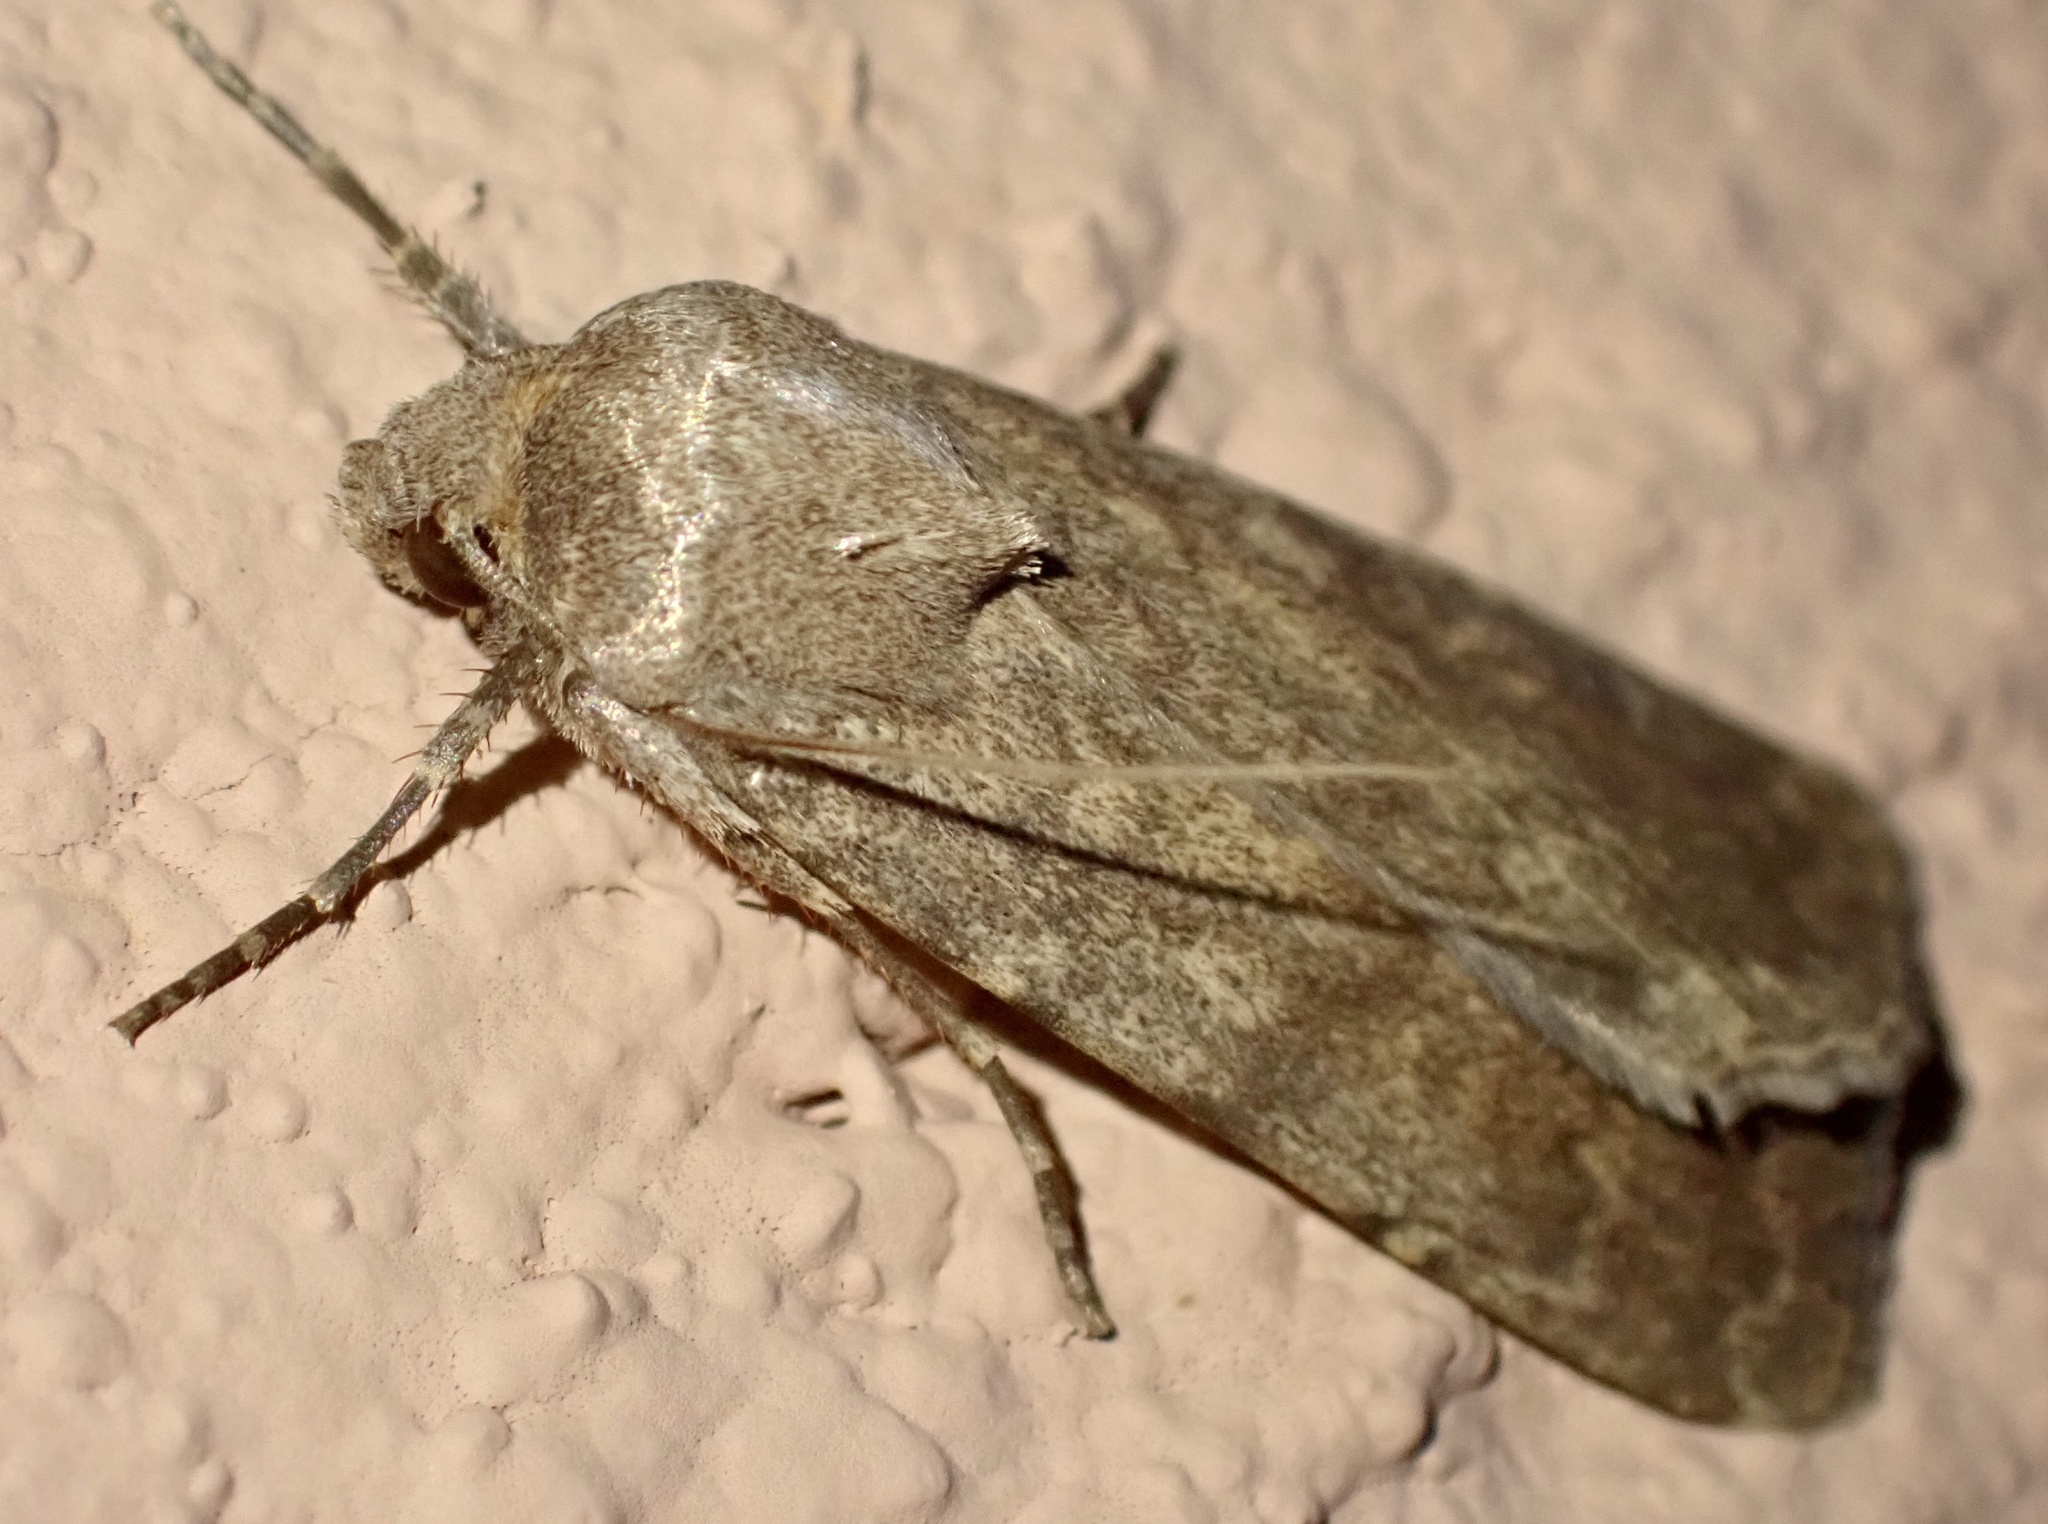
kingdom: Animalia
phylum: Arthropoda
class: Insecta
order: Lepidoptera
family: Noctuidae
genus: Actebia
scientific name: Actebia photophila
